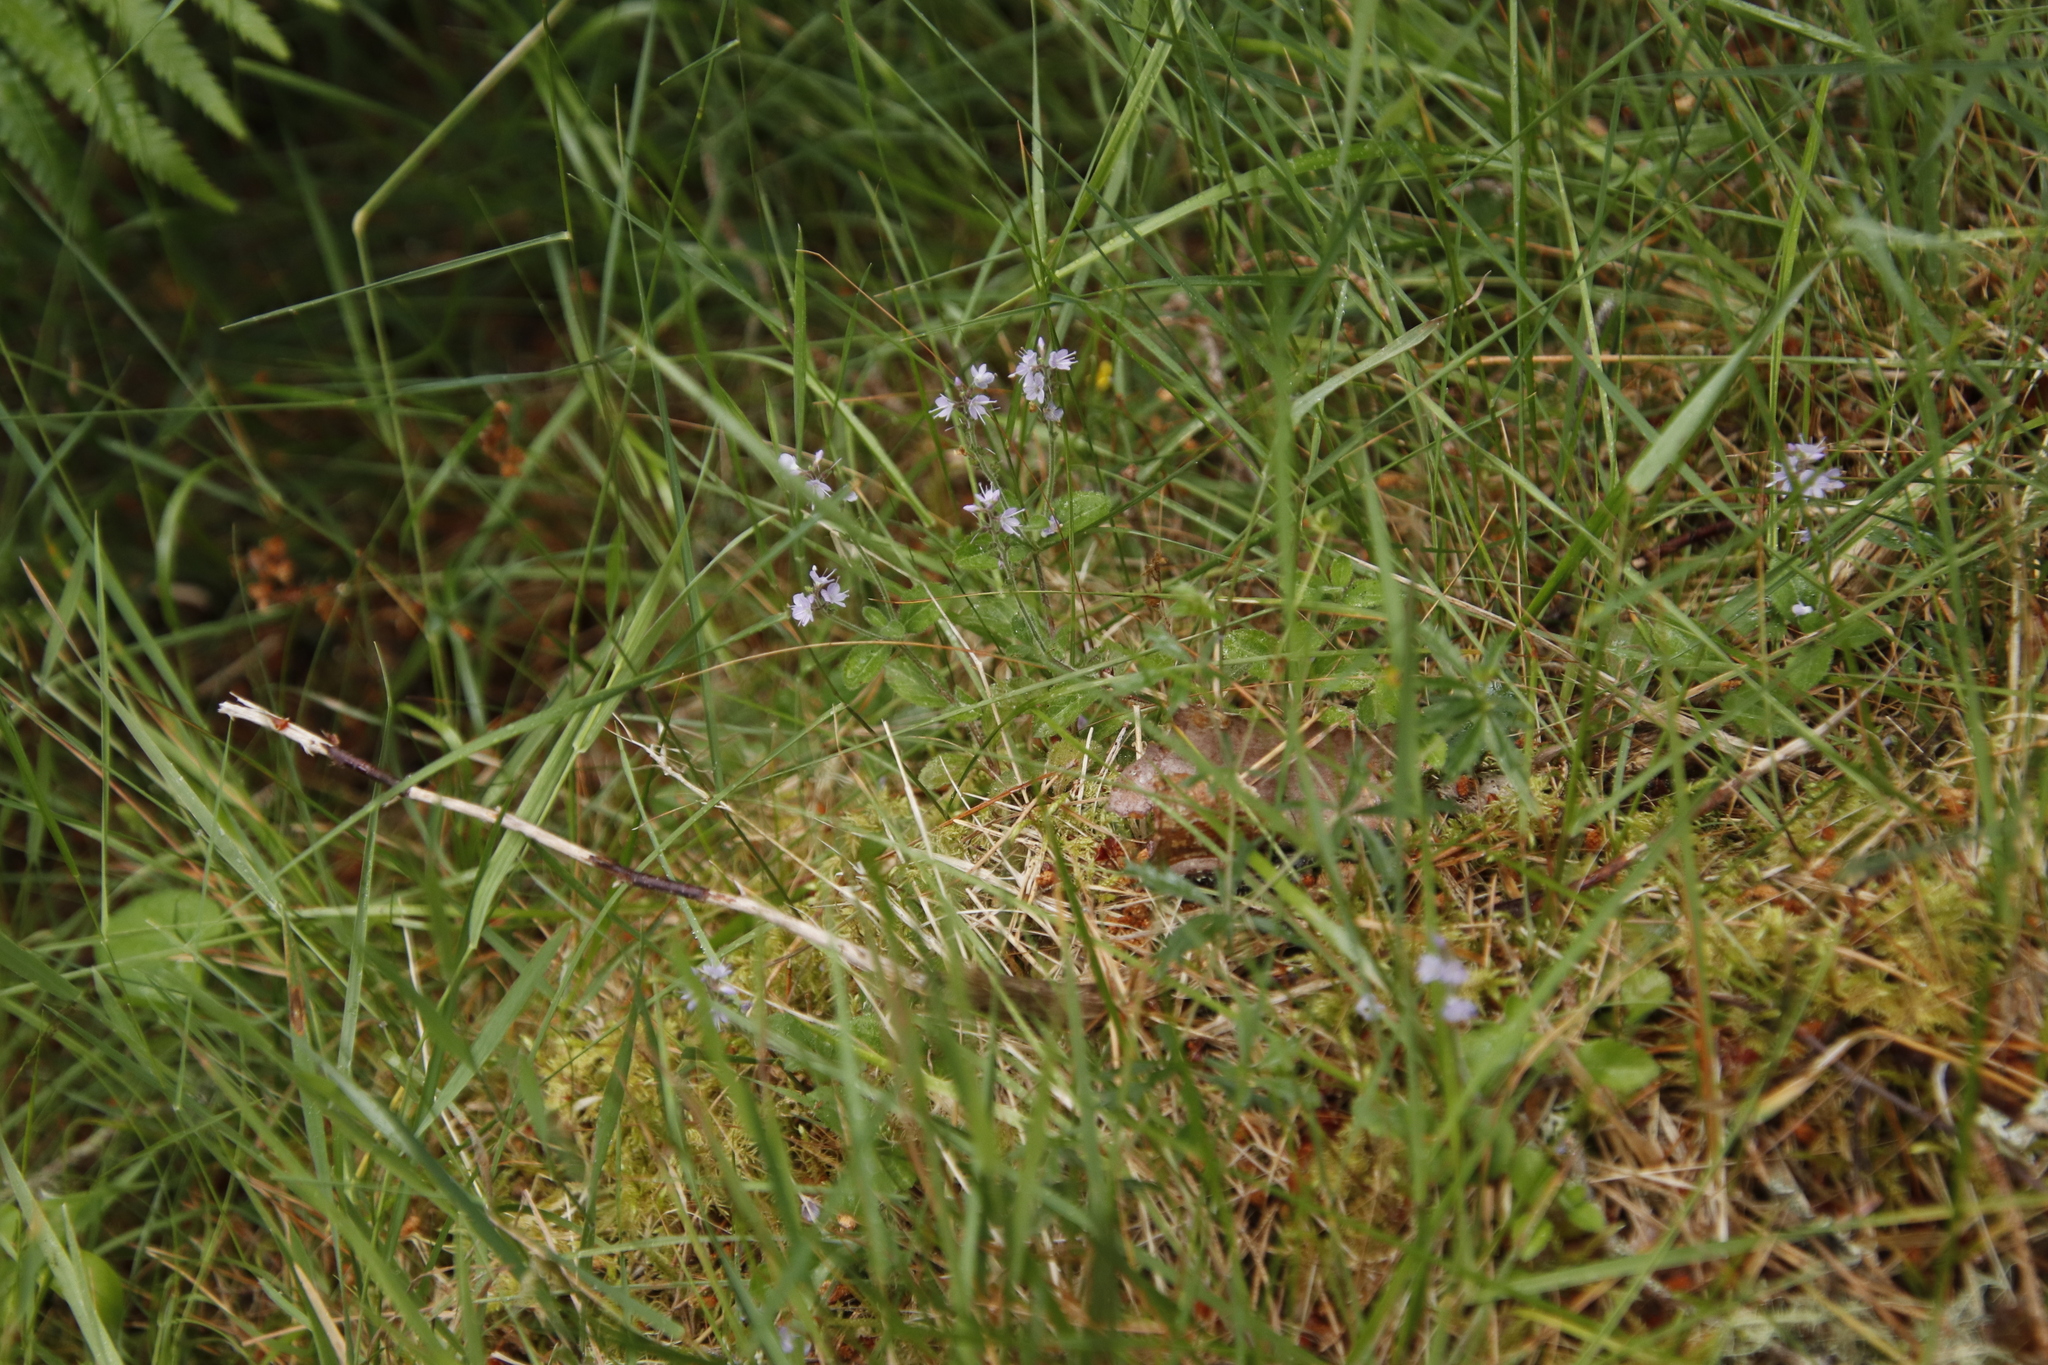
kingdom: Plantae
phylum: Tracheophyta
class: Magnoliopsida
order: Lamiales
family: Plantaginaceae
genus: Veronica
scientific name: Veronica officinalis
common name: Common speedwell
